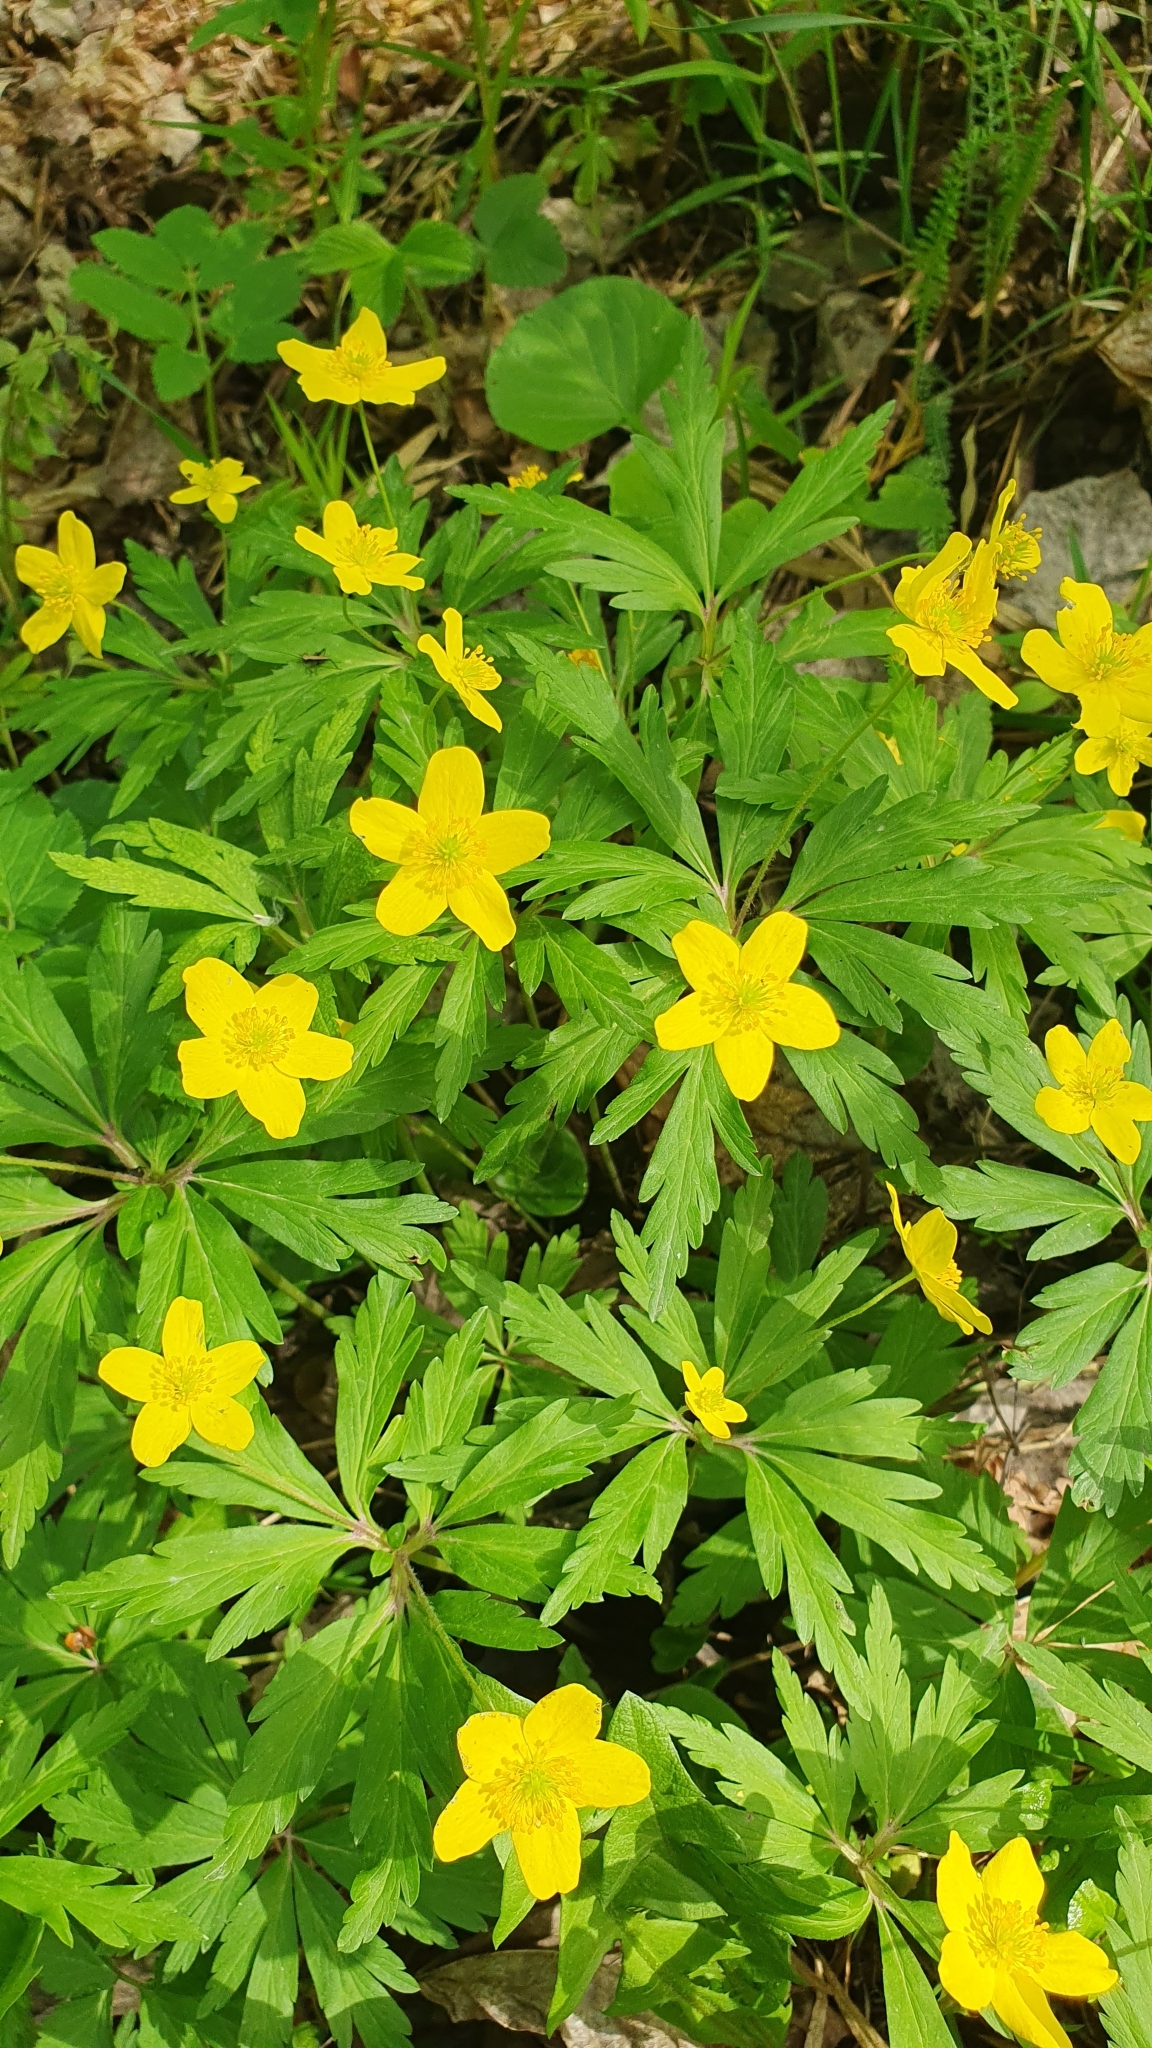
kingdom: Plantae
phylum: Tracheophyta
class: Magnoliopsida
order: Ranunculales
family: Ranunculaceae
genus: Anemone
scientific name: Anemone ranunculoides
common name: Yellow anemone
